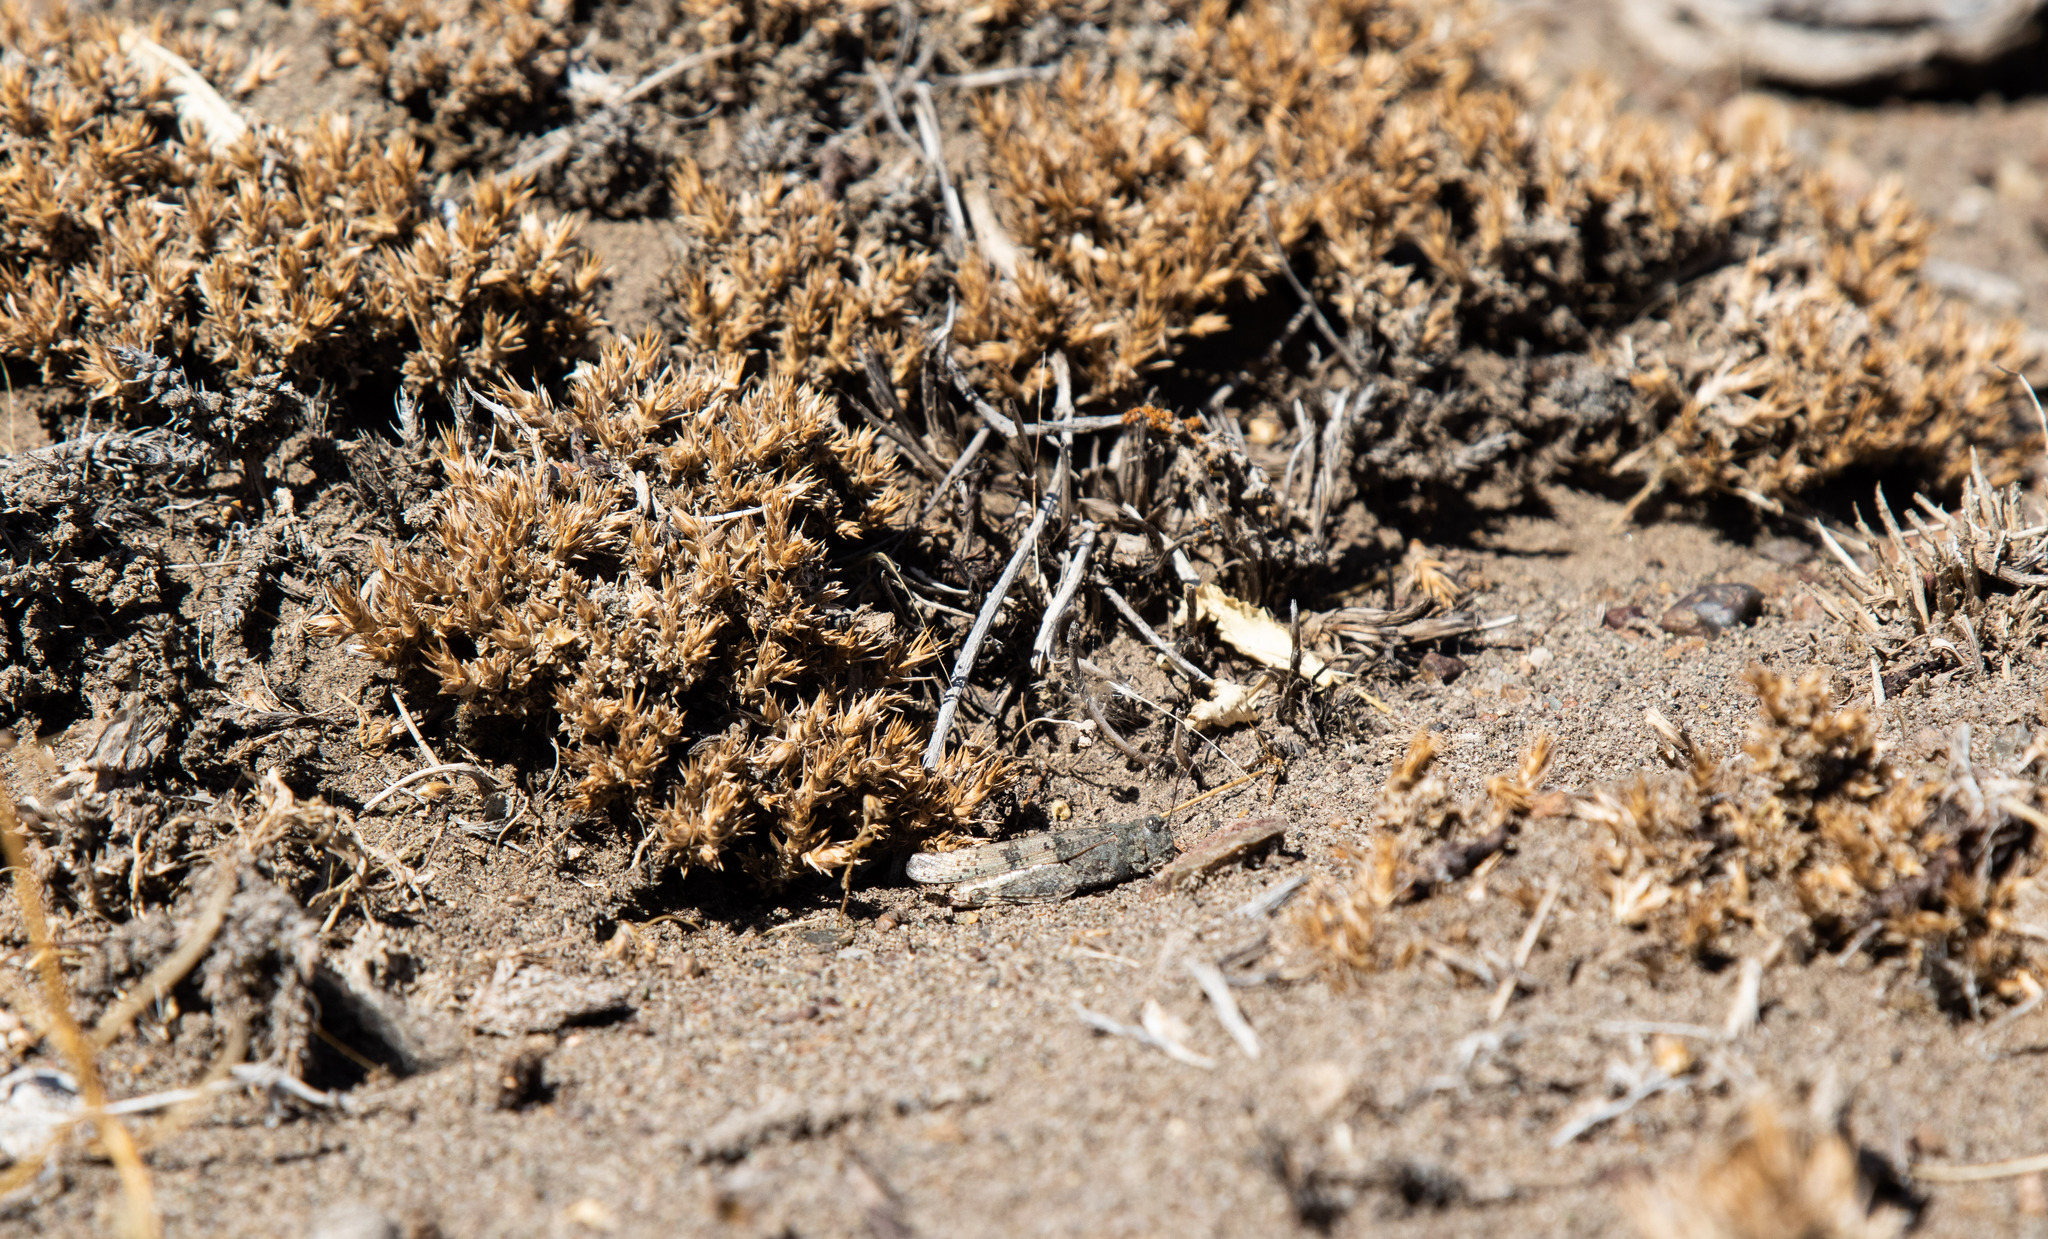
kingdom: Animalia
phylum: Arthropoda
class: Insecta
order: Orthoptera
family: Acrididae
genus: Trimerotropis
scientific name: Trimerotropis pallidipennis
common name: Pallid-winged grasshopper
